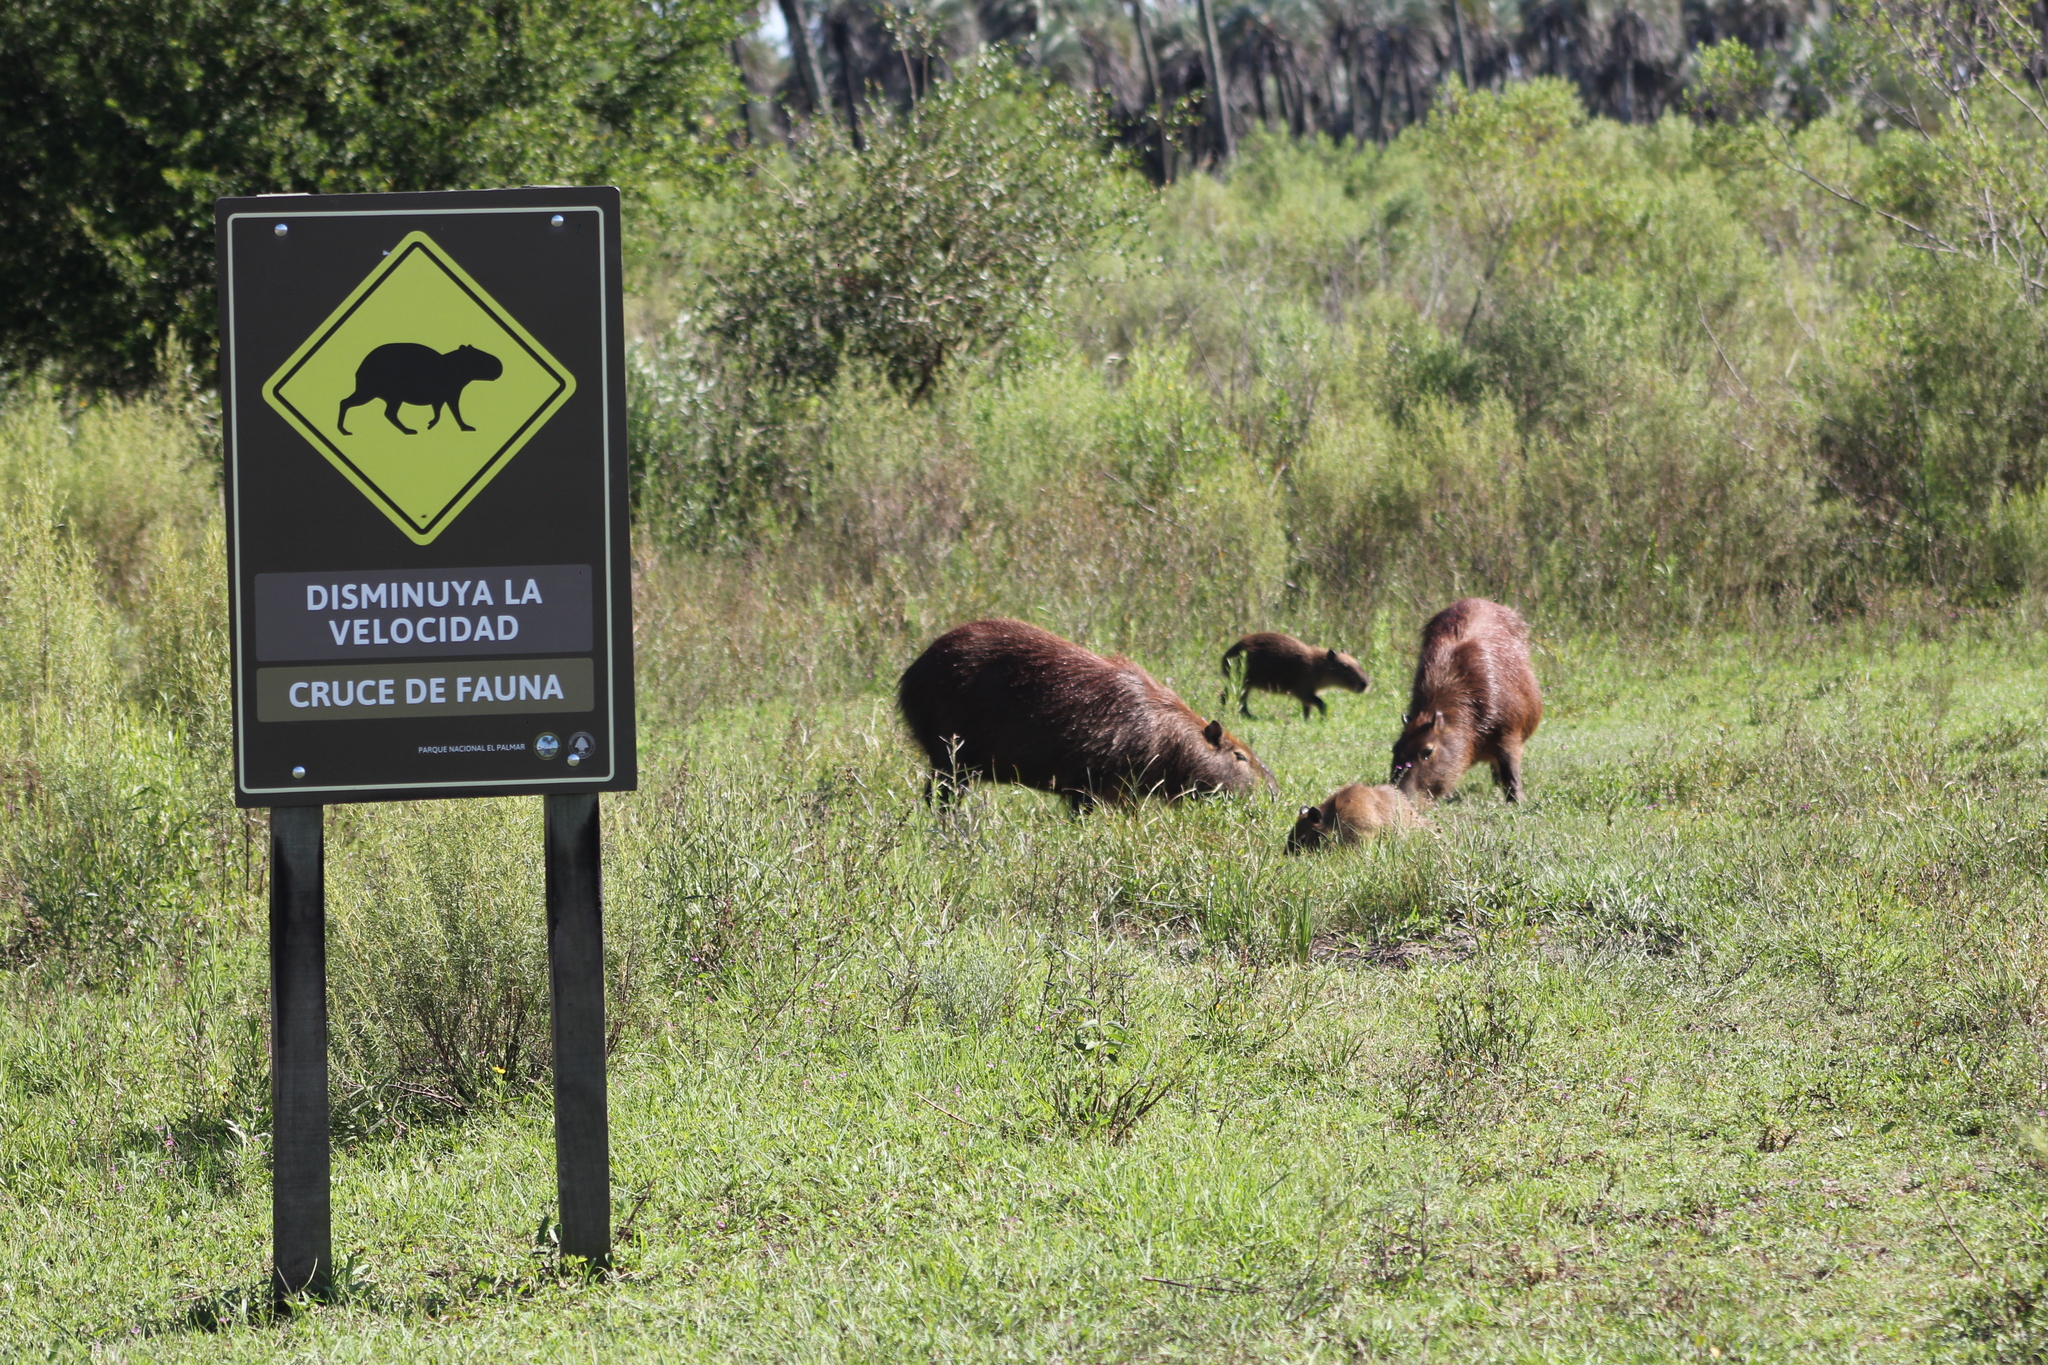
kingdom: Animalia
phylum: Chordata
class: Mammalia
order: Rodentia
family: Caviidae
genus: Hydrochoerus
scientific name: Hydrochoerus hydrochaeris
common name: Capybara
